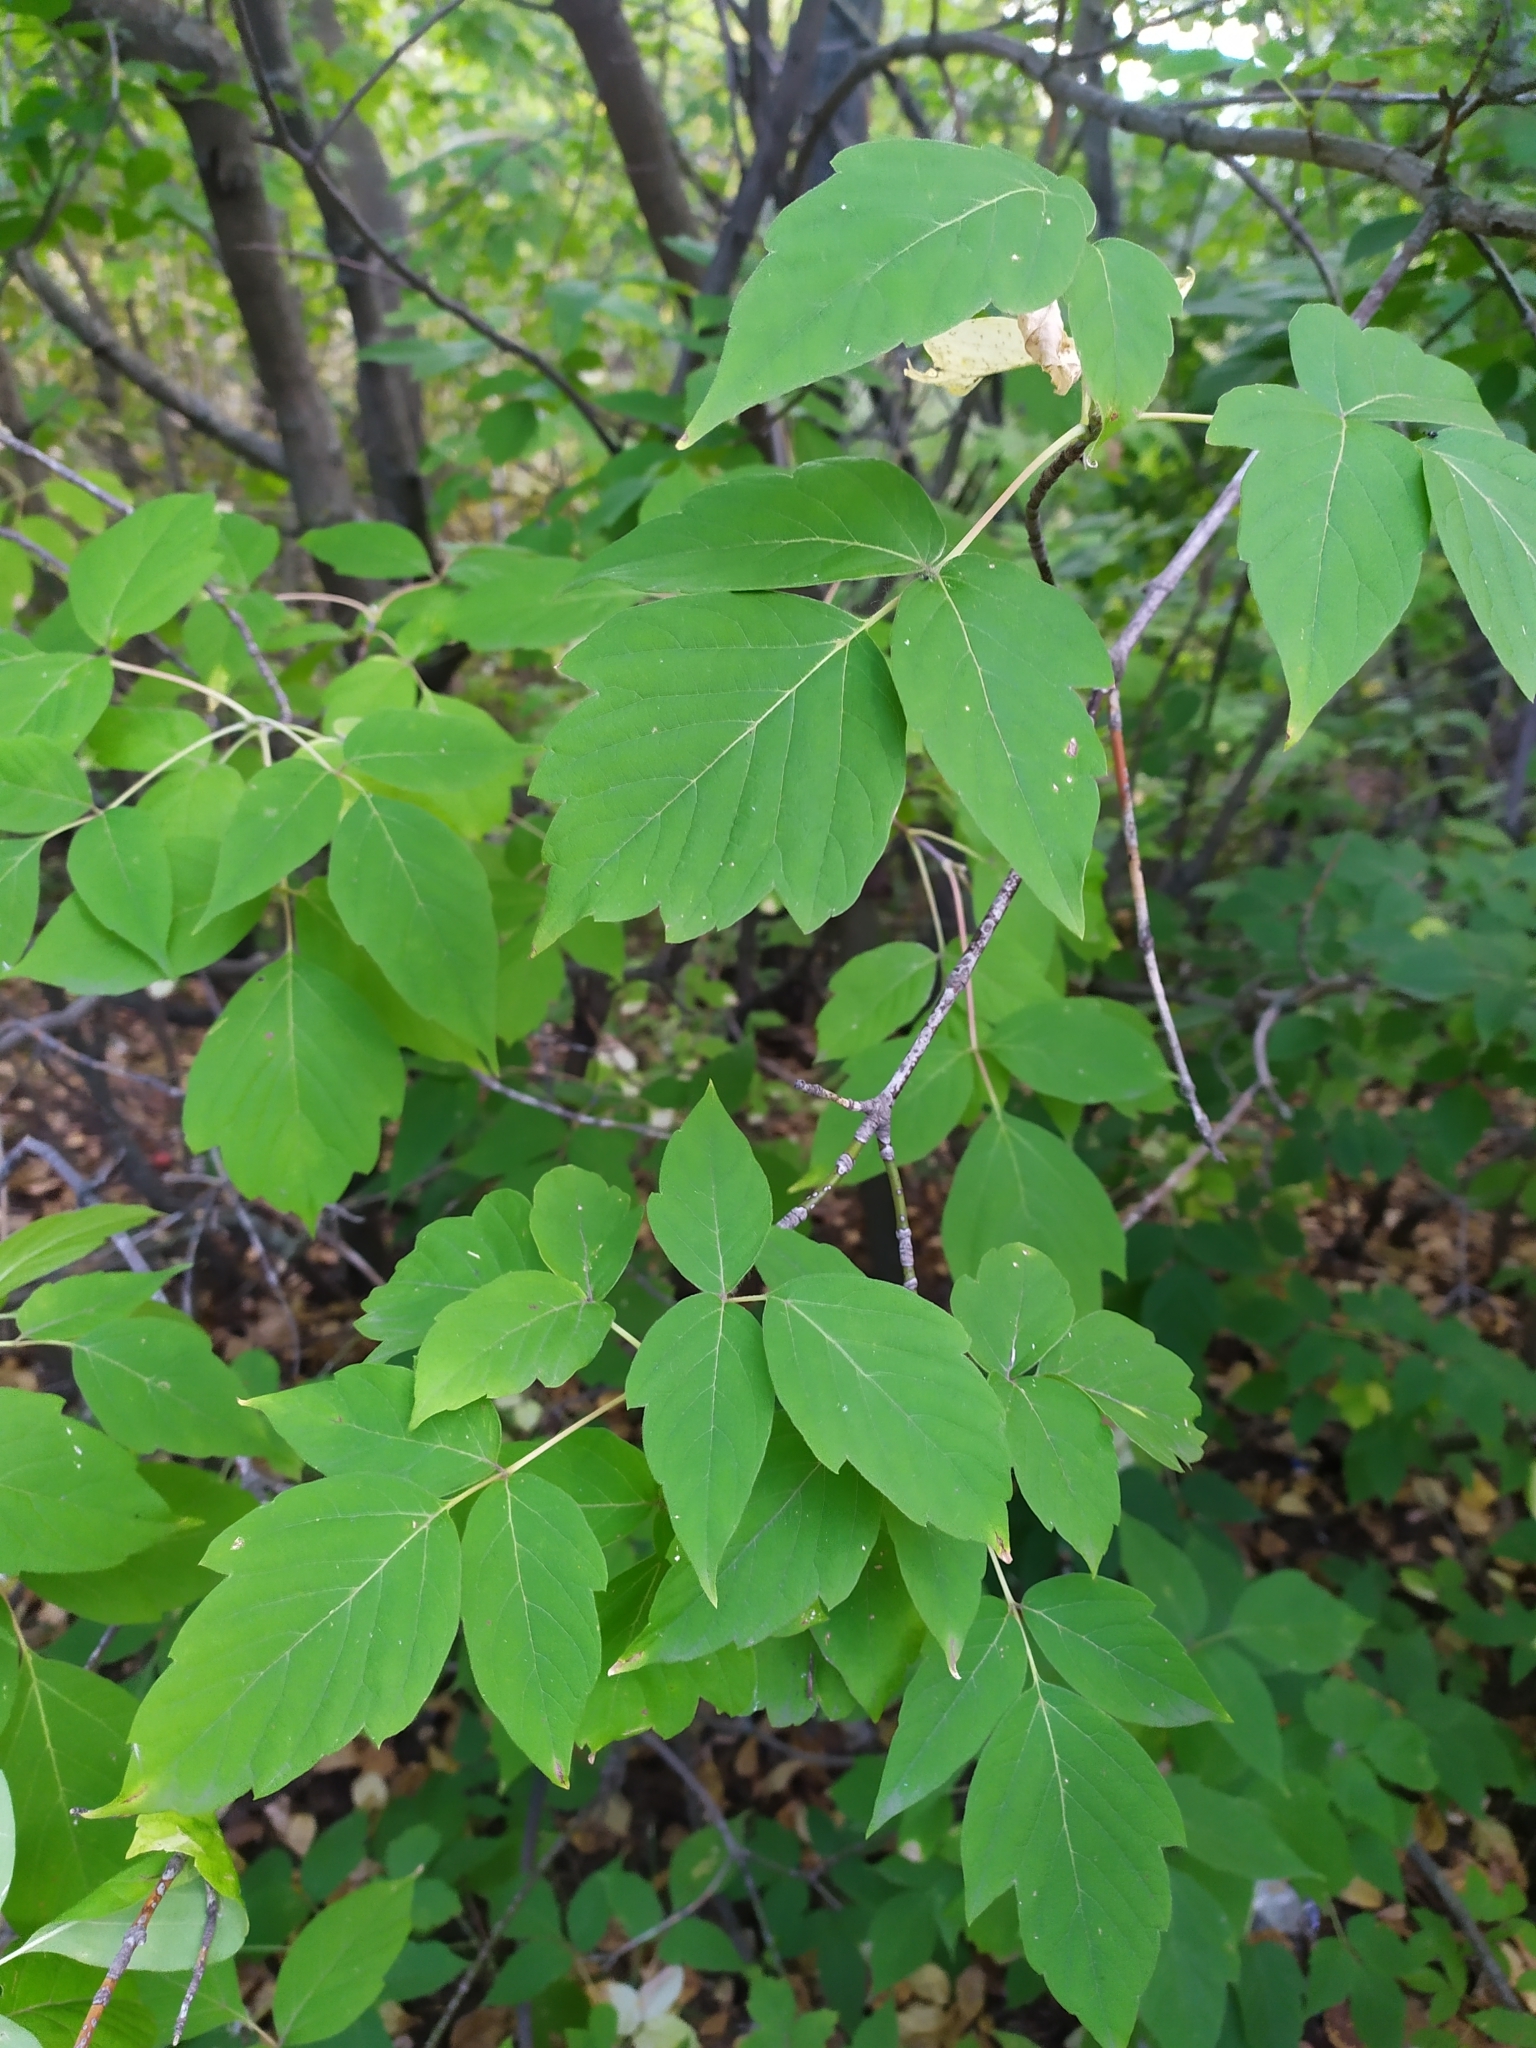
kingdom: Plantae
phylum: Tracheophyta
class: Magnoliopsida
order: Sapindales
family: Sapindaceae
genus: Acer
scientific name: Acer negundo
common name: Ashleaf maple
